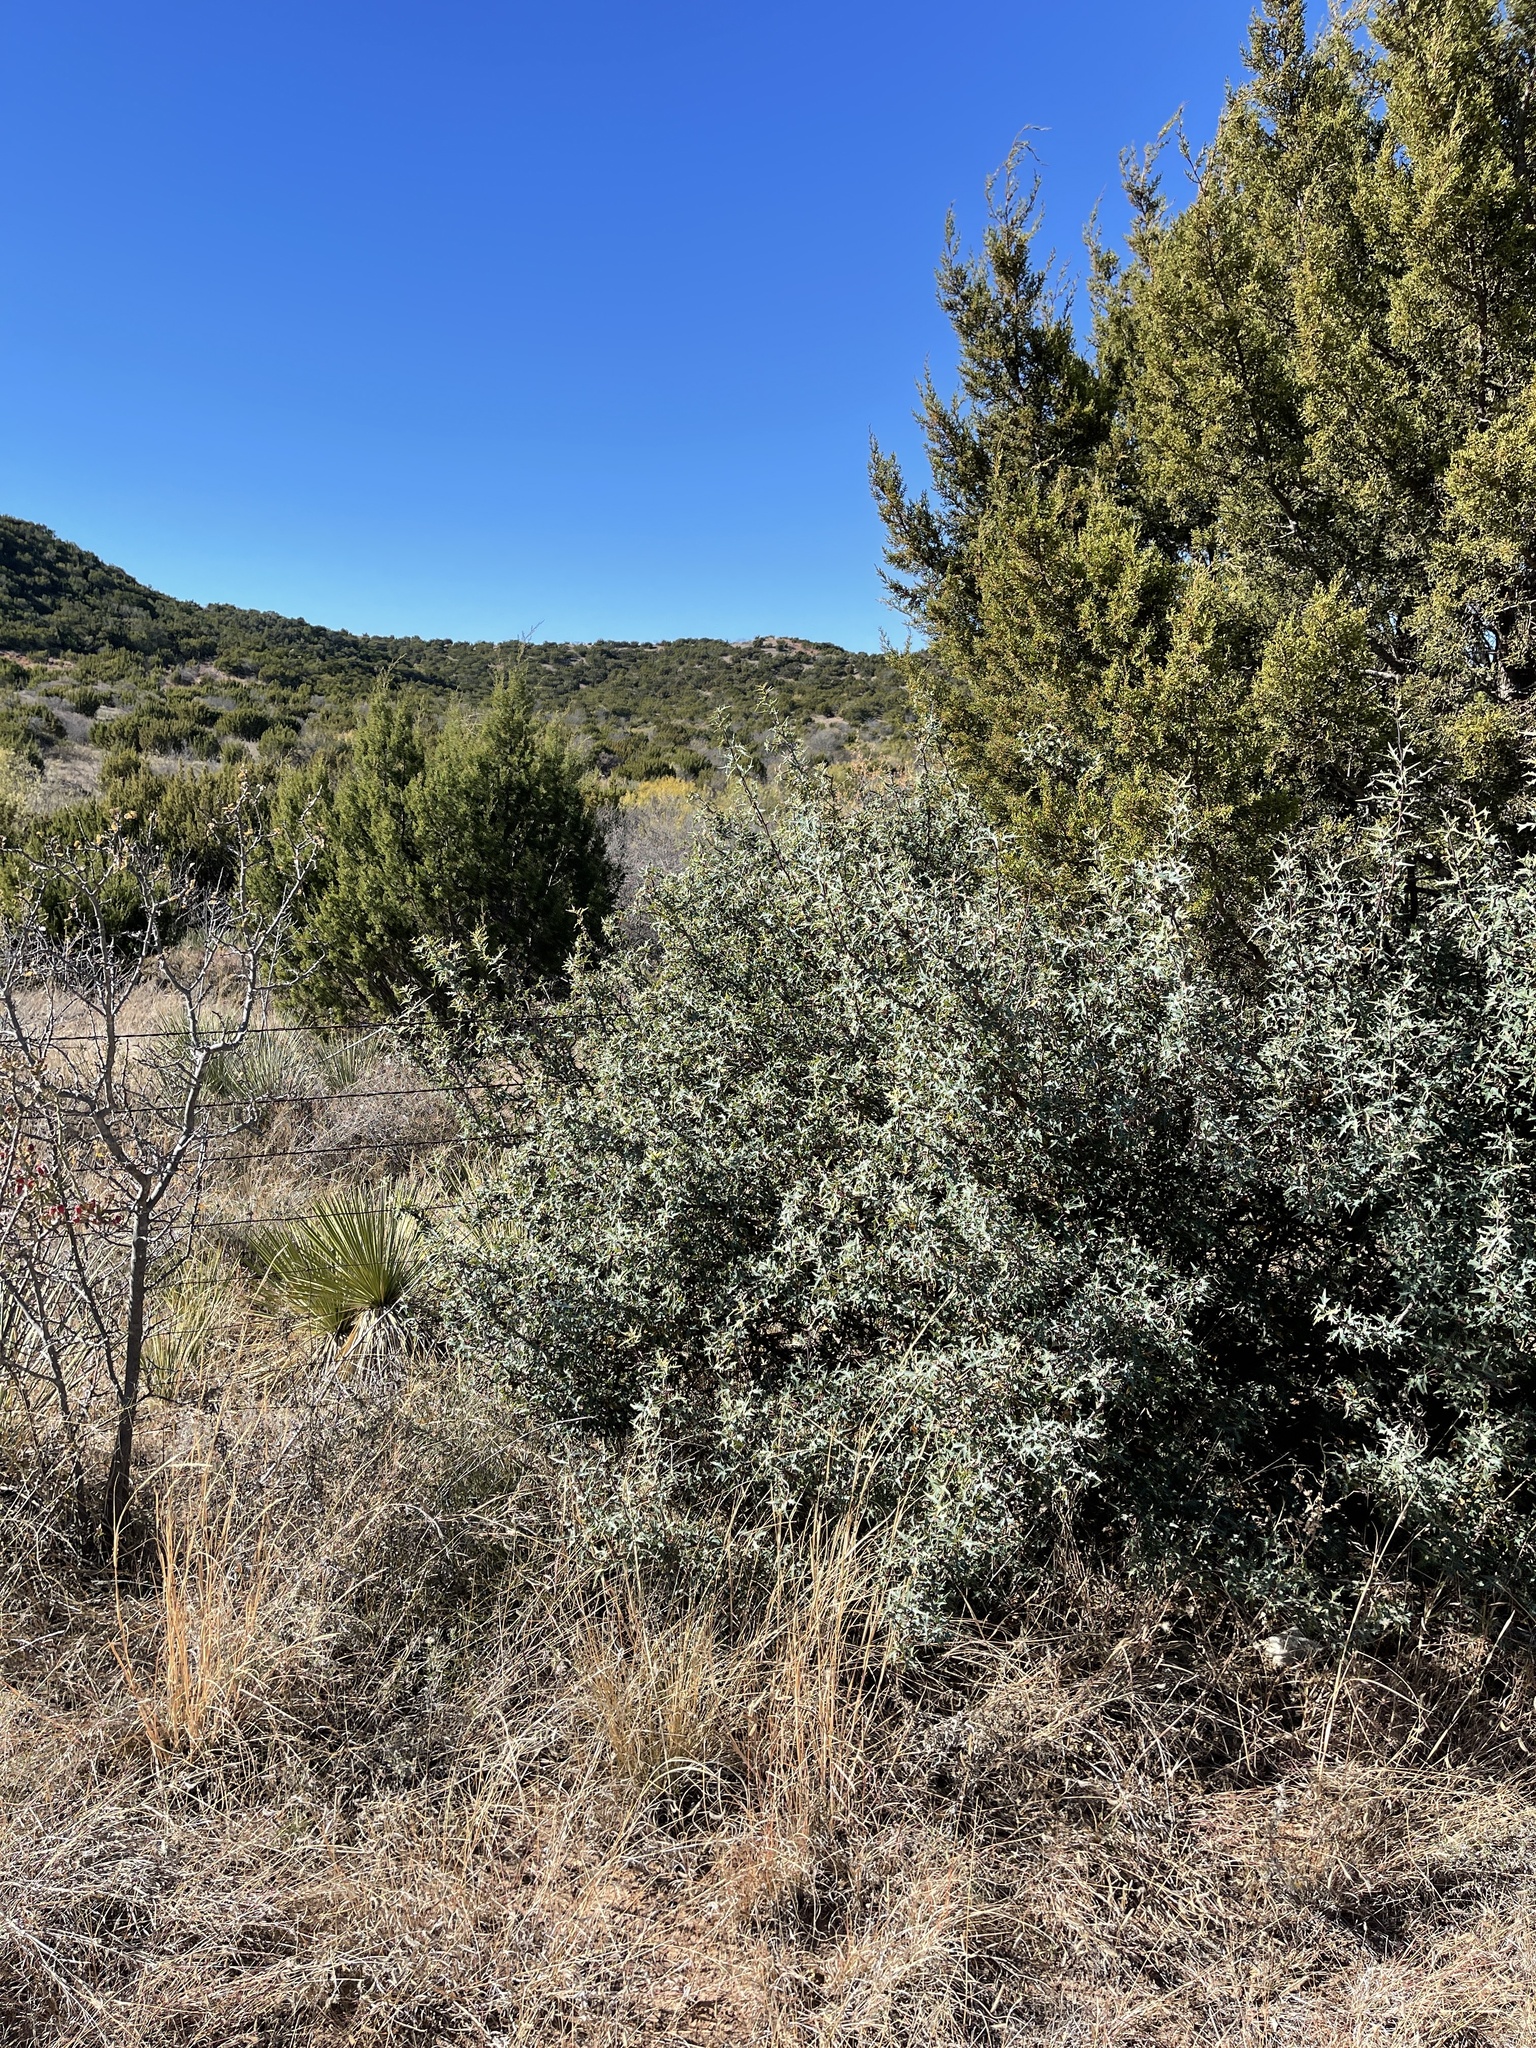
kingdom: Plantae
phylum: Tracheophyta
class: Magnoliopsida
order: Ranunculales
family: Berberidaceae
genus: Alloberberis
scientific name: Alloberberis trifoliolata
